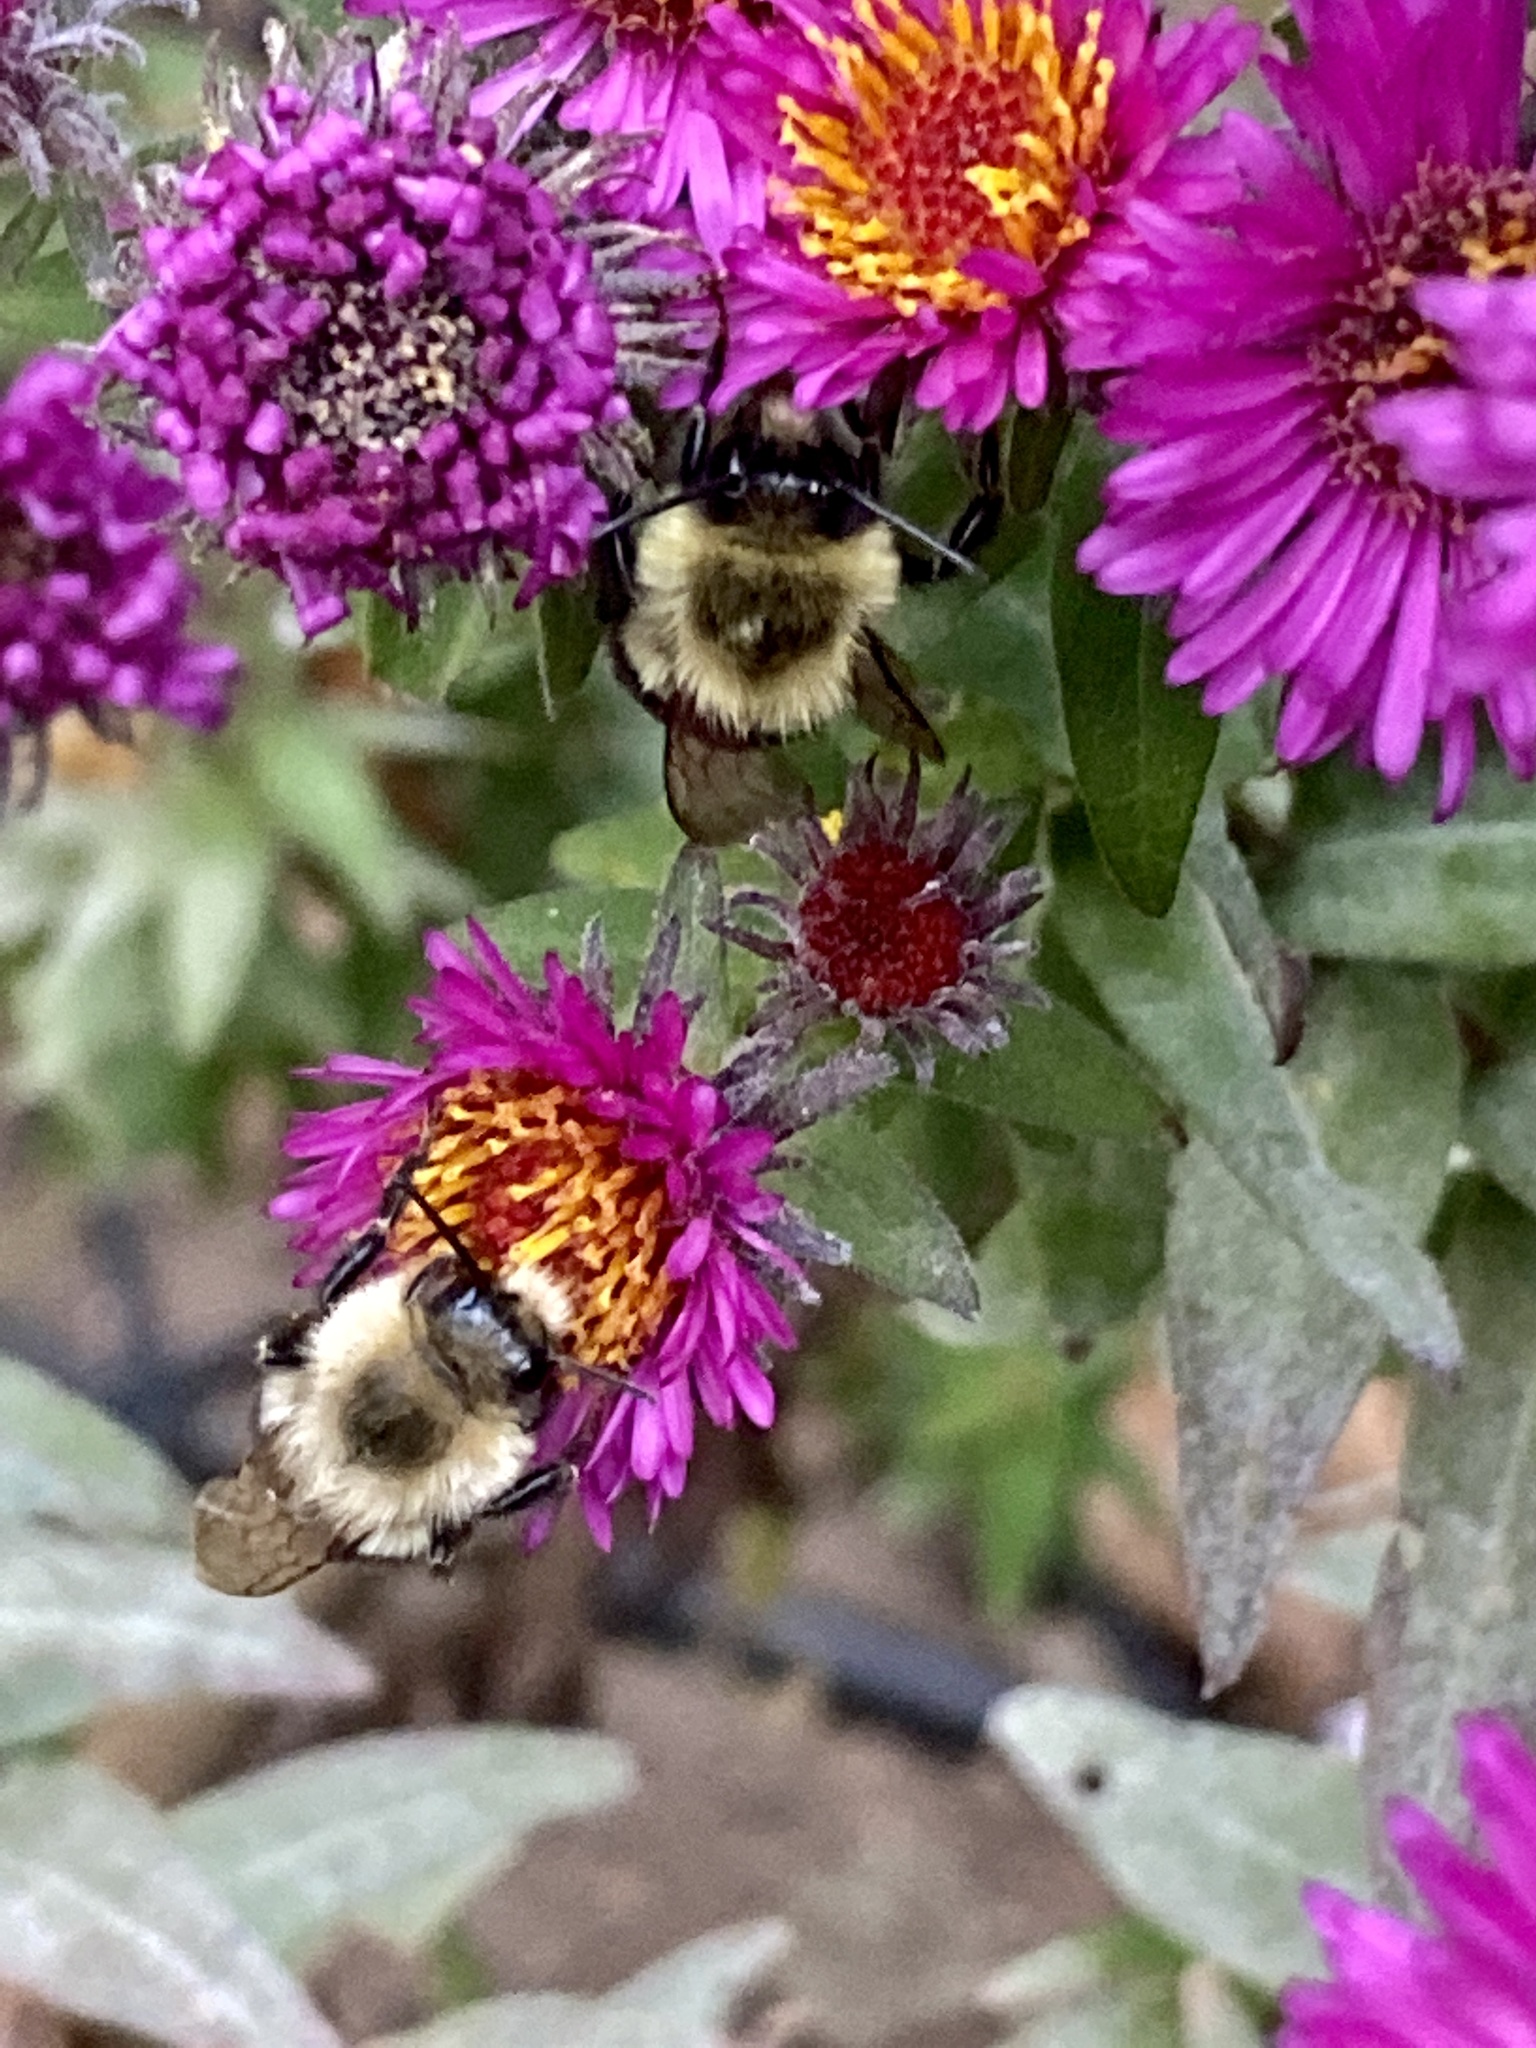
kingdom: Animalia
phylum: Arthropoda
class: Insecta
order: Hymenoptera
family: Apidae
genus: Bombus
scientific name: Bombus impatiens
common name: Common eastern bumble bee
